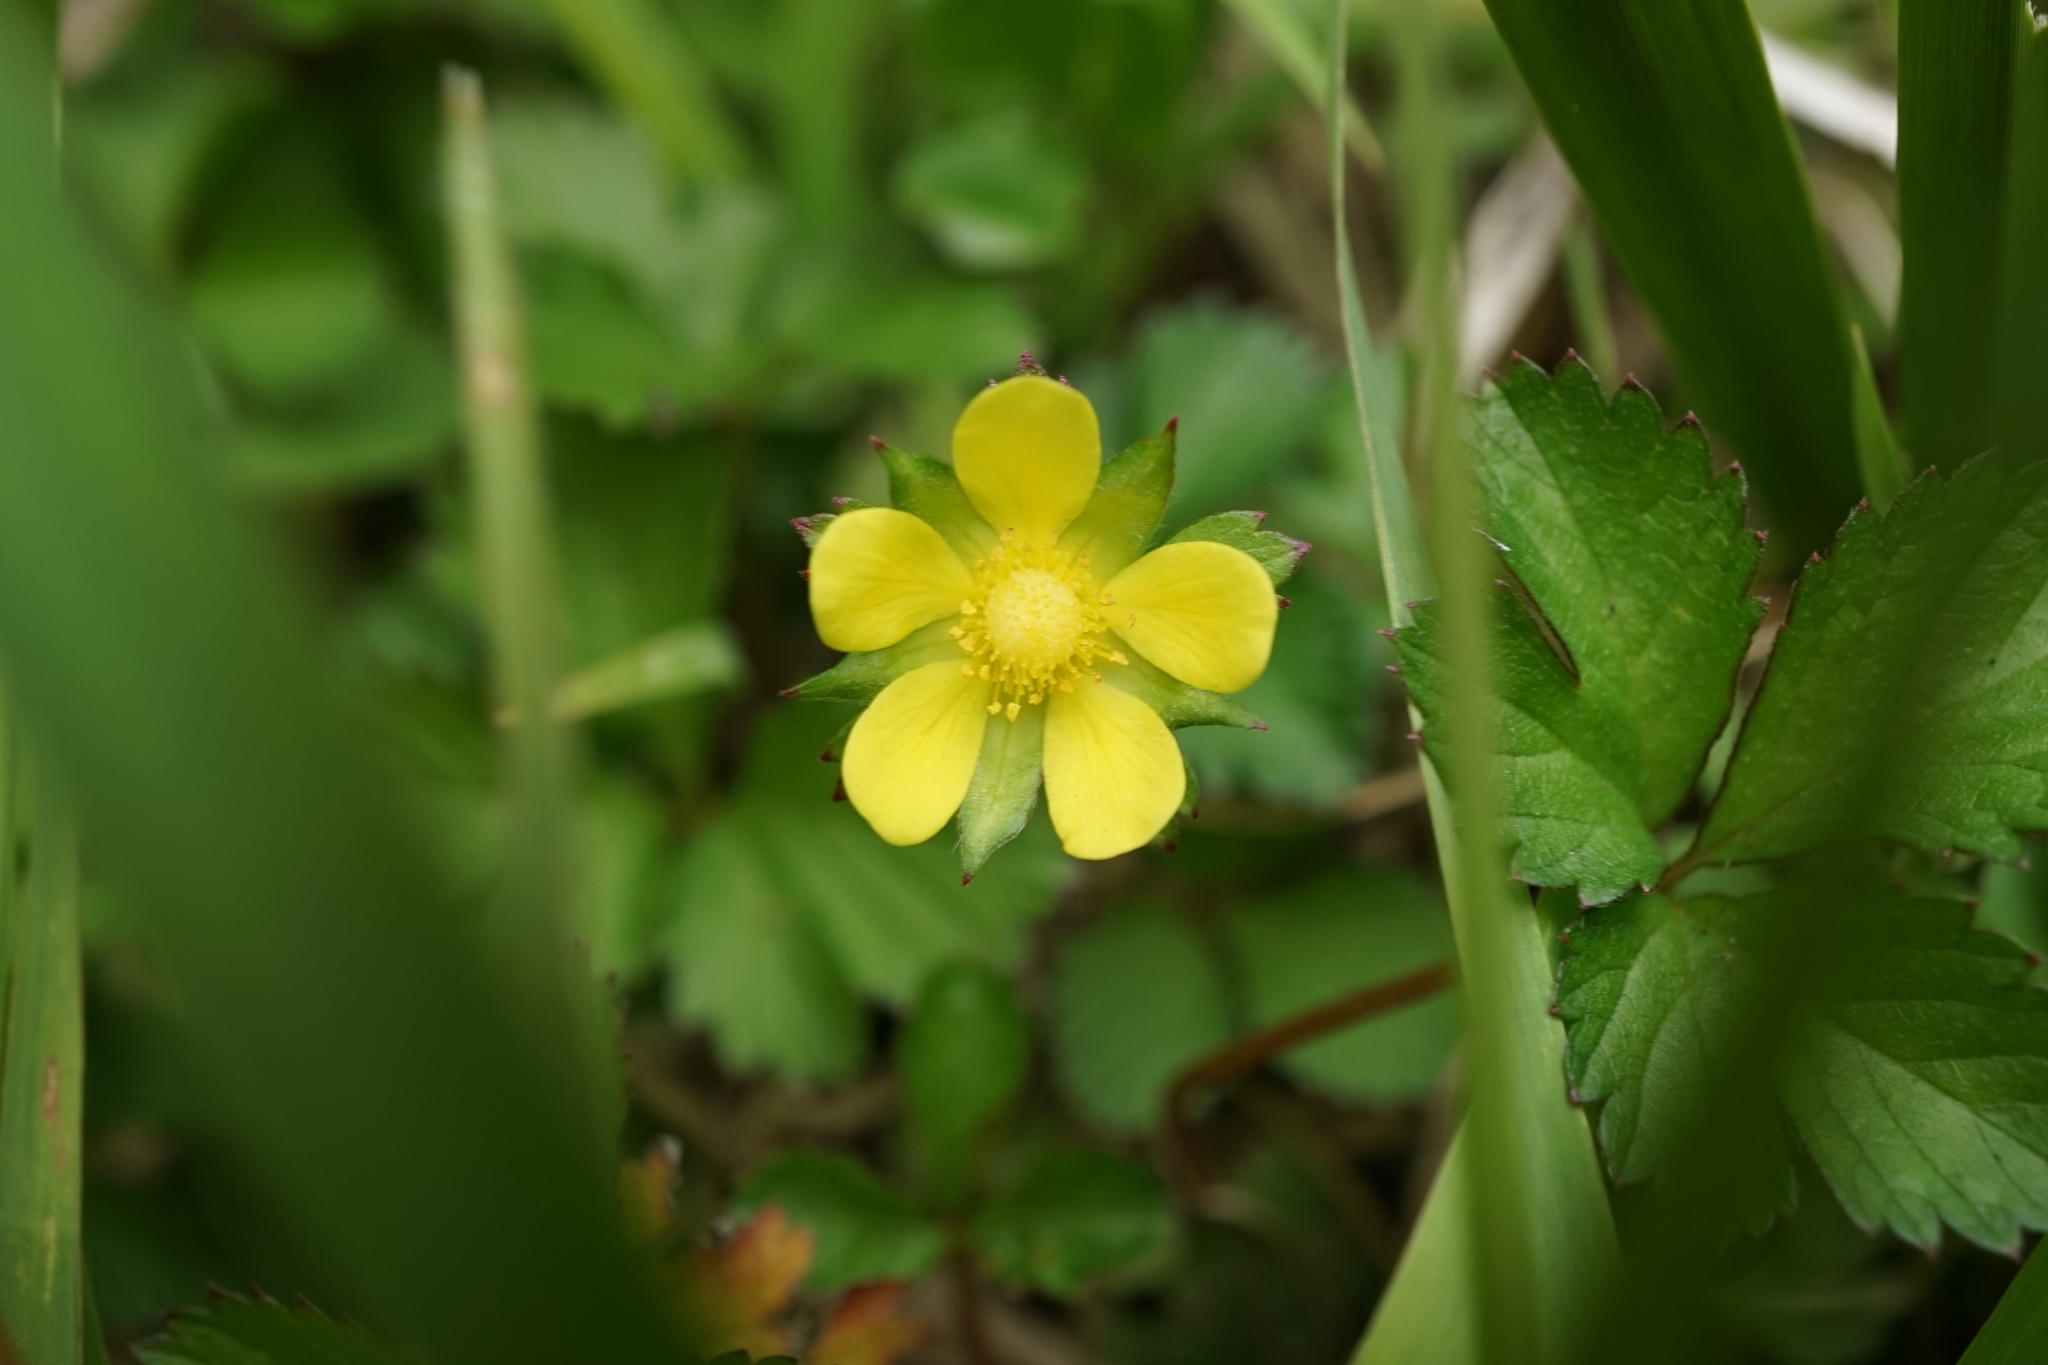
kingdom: Plantae
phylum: Tracheophyta
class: Magnoliopsida
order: Rosales
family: Rosaceae
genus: Potentilla
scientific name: Potentilla indica
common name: Yellow-flowered strawberry
